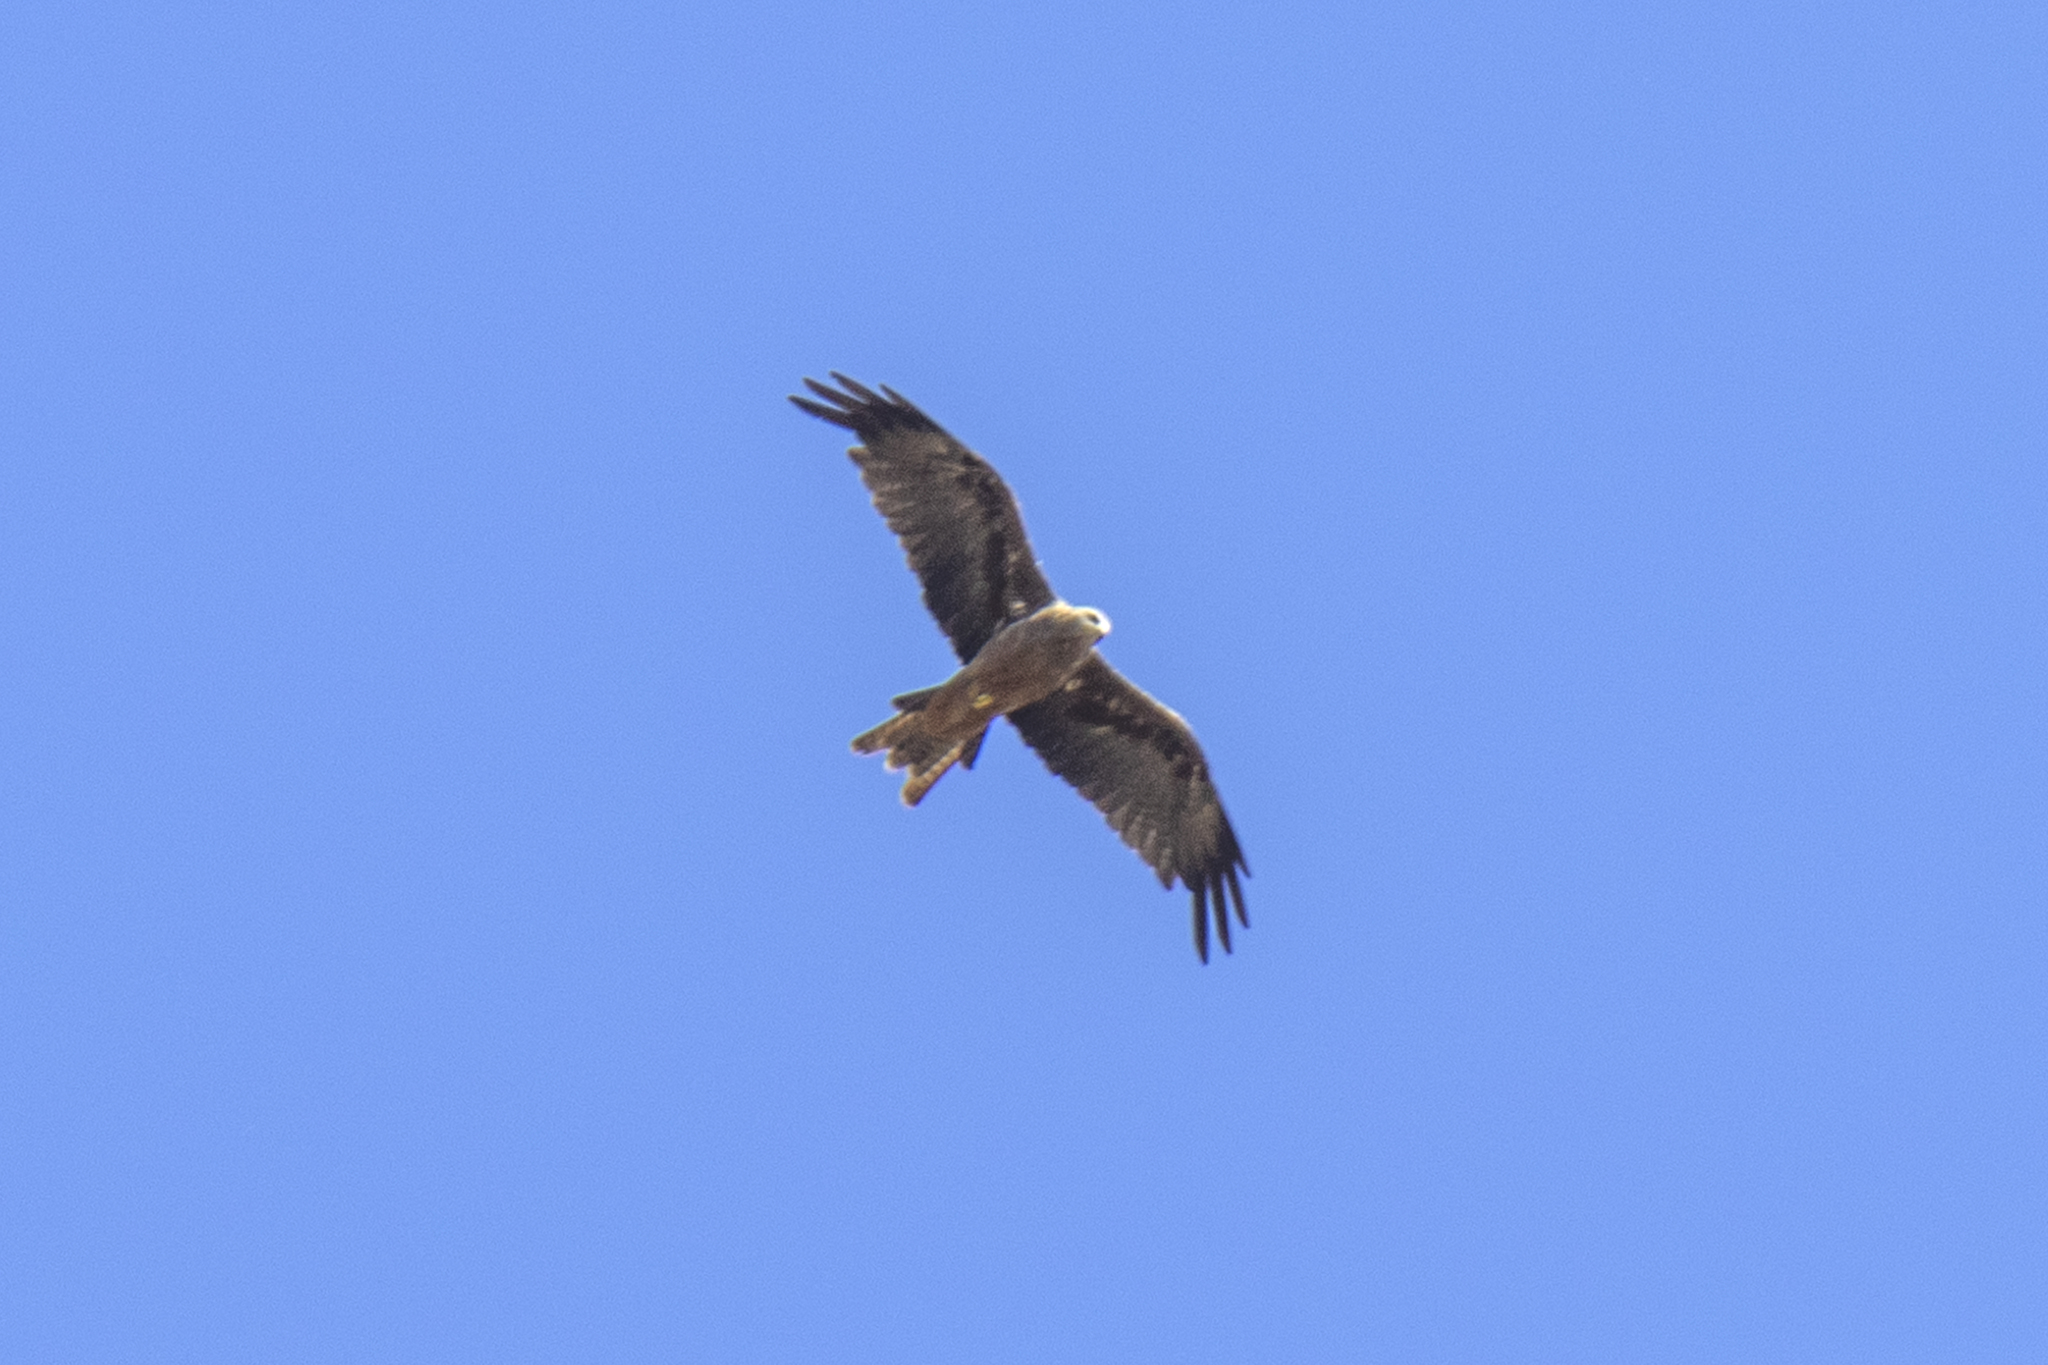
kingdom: Animalia
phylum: Chordata
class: Aves
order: Accipitriformes
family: Accipitridae
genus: Milvus
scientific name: Milvus migrans
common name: Black kite
